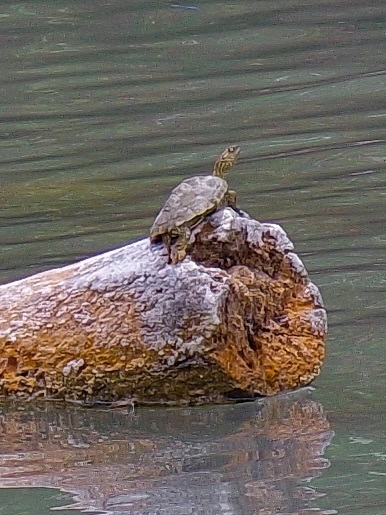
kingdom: Animalia
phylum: Chordata
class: Testudines
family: Emydidae
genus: Graptemys
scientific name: Graptemys versa
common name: Texas map turtle
